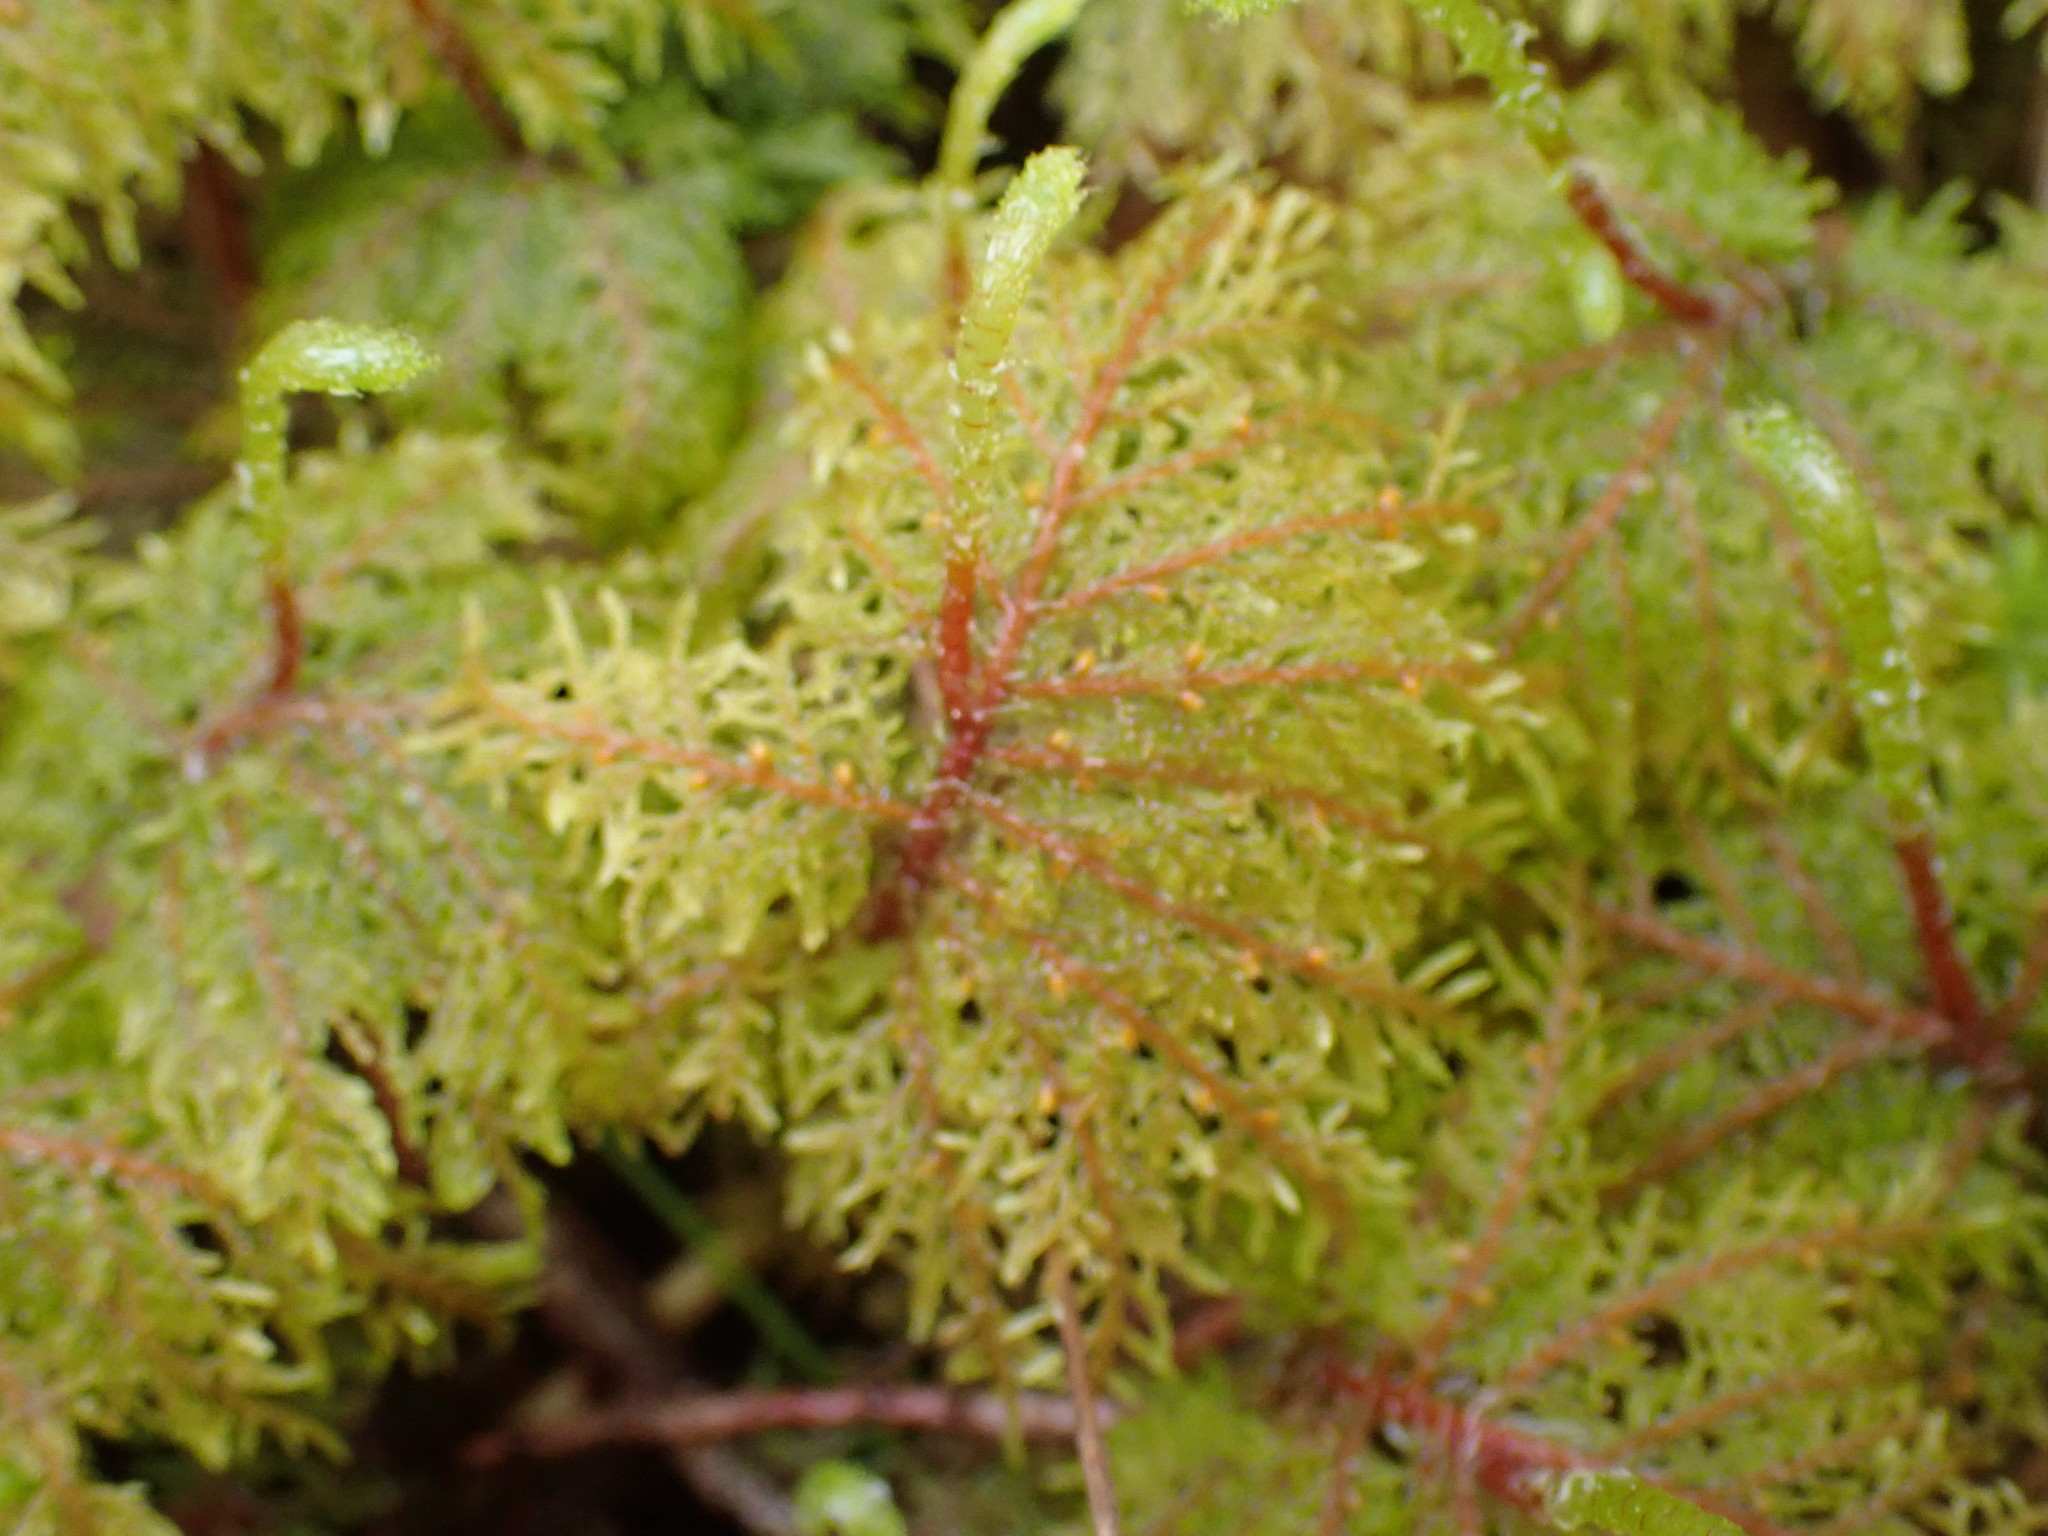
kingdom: Plantae
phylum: Bryophyta
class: Bryopsida
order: Hypnales
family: Hylocomiaceae
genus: Hylocomium
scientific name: Hylocomium splendens
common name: Stairstep moss
